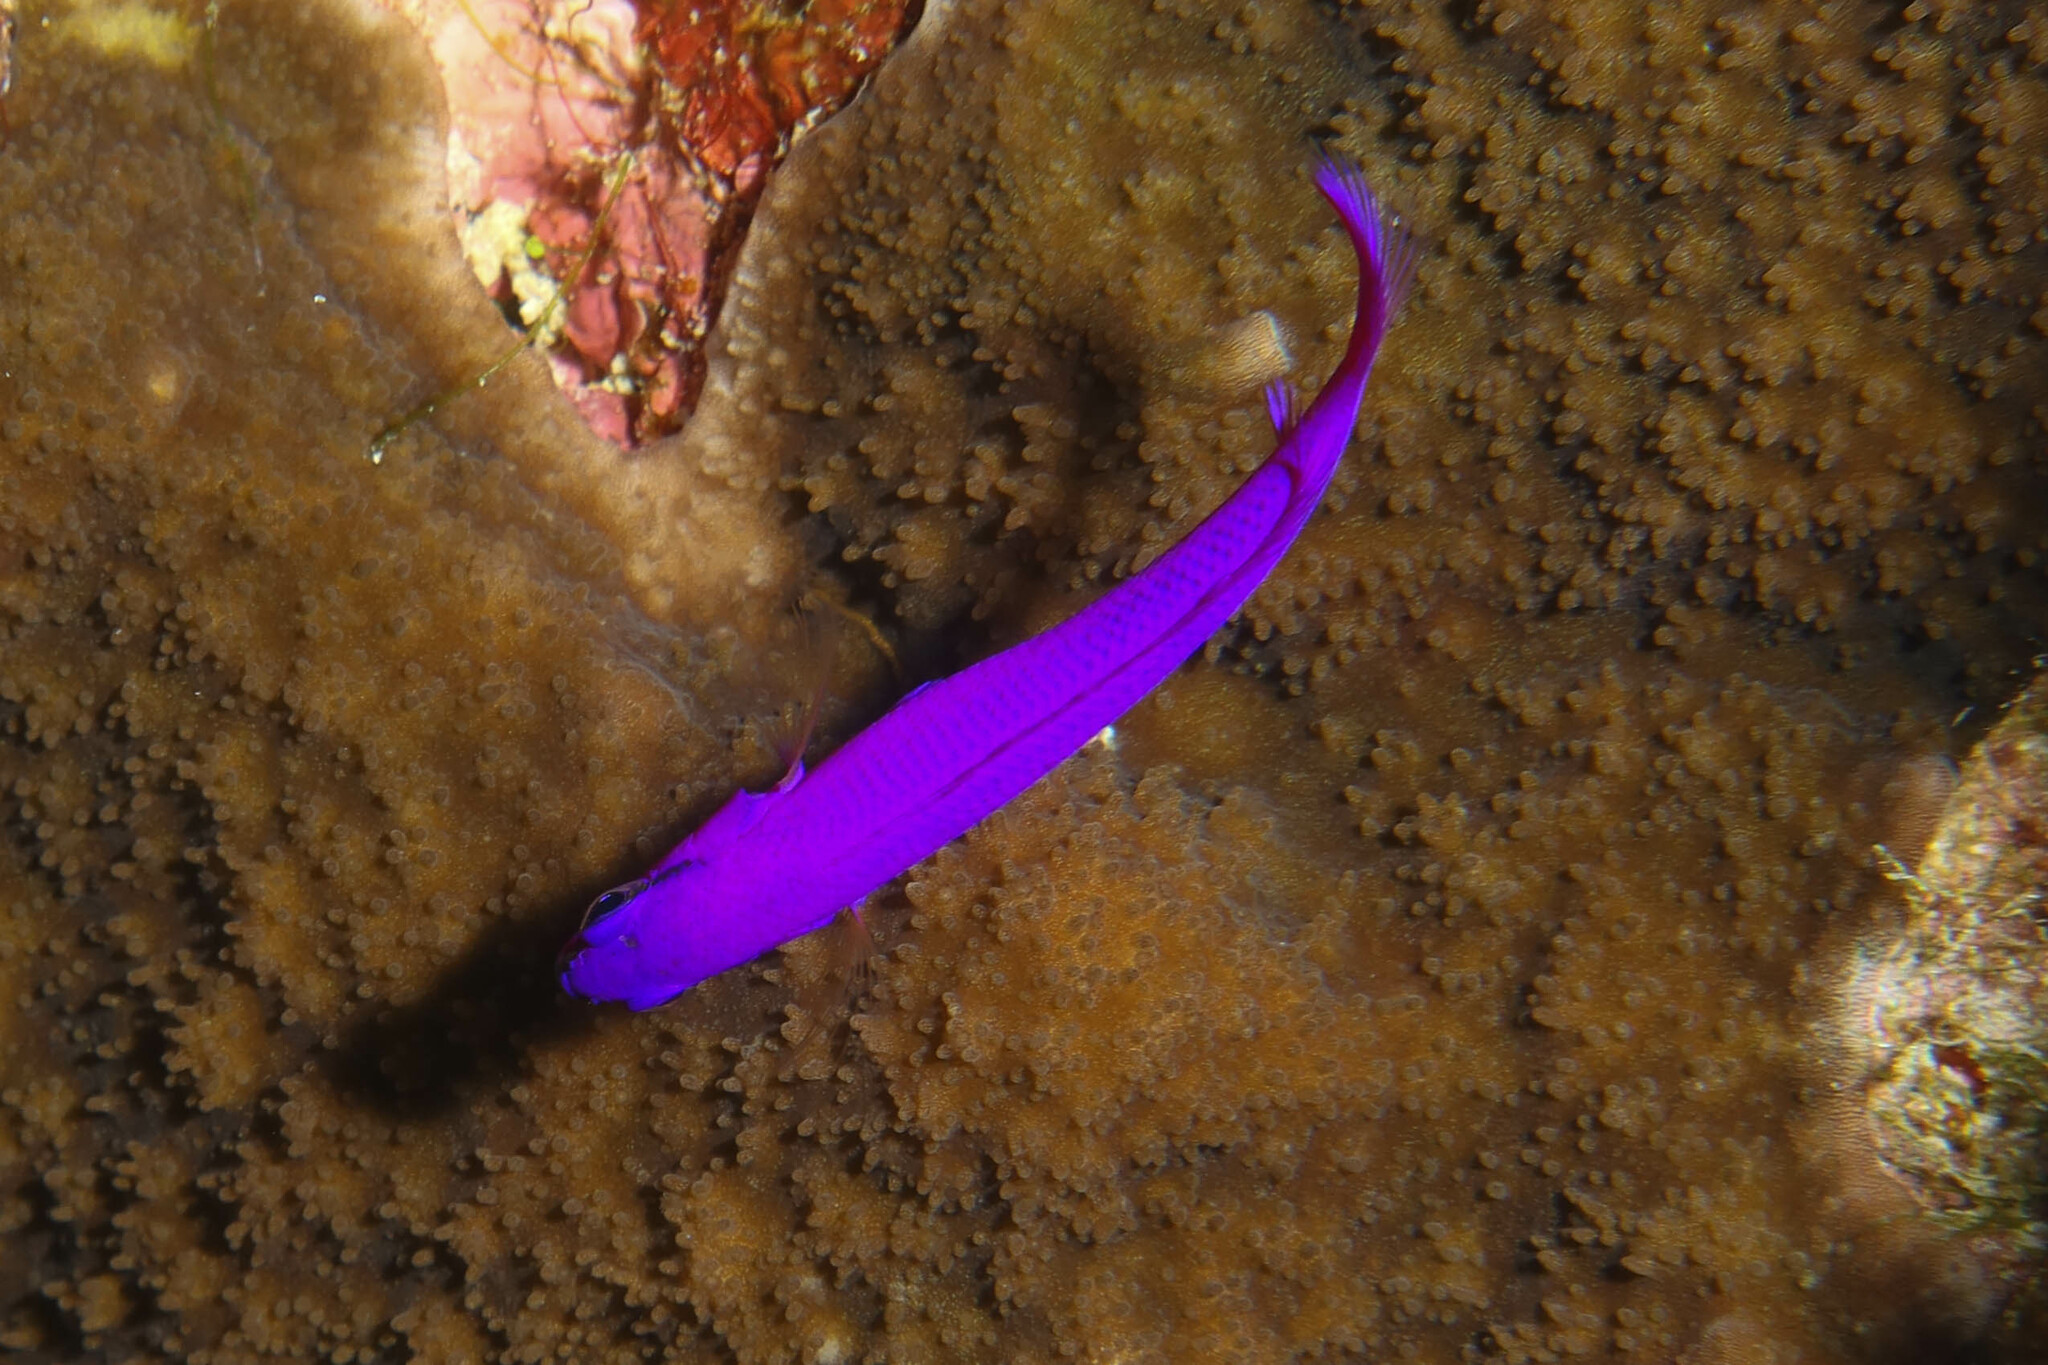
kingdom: Animalia
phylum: Chordata
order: Perciformes
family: Pseudochromidae
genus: Pseudochromis
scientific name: Pseudochromis fridmani
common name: Orchid dottyback
